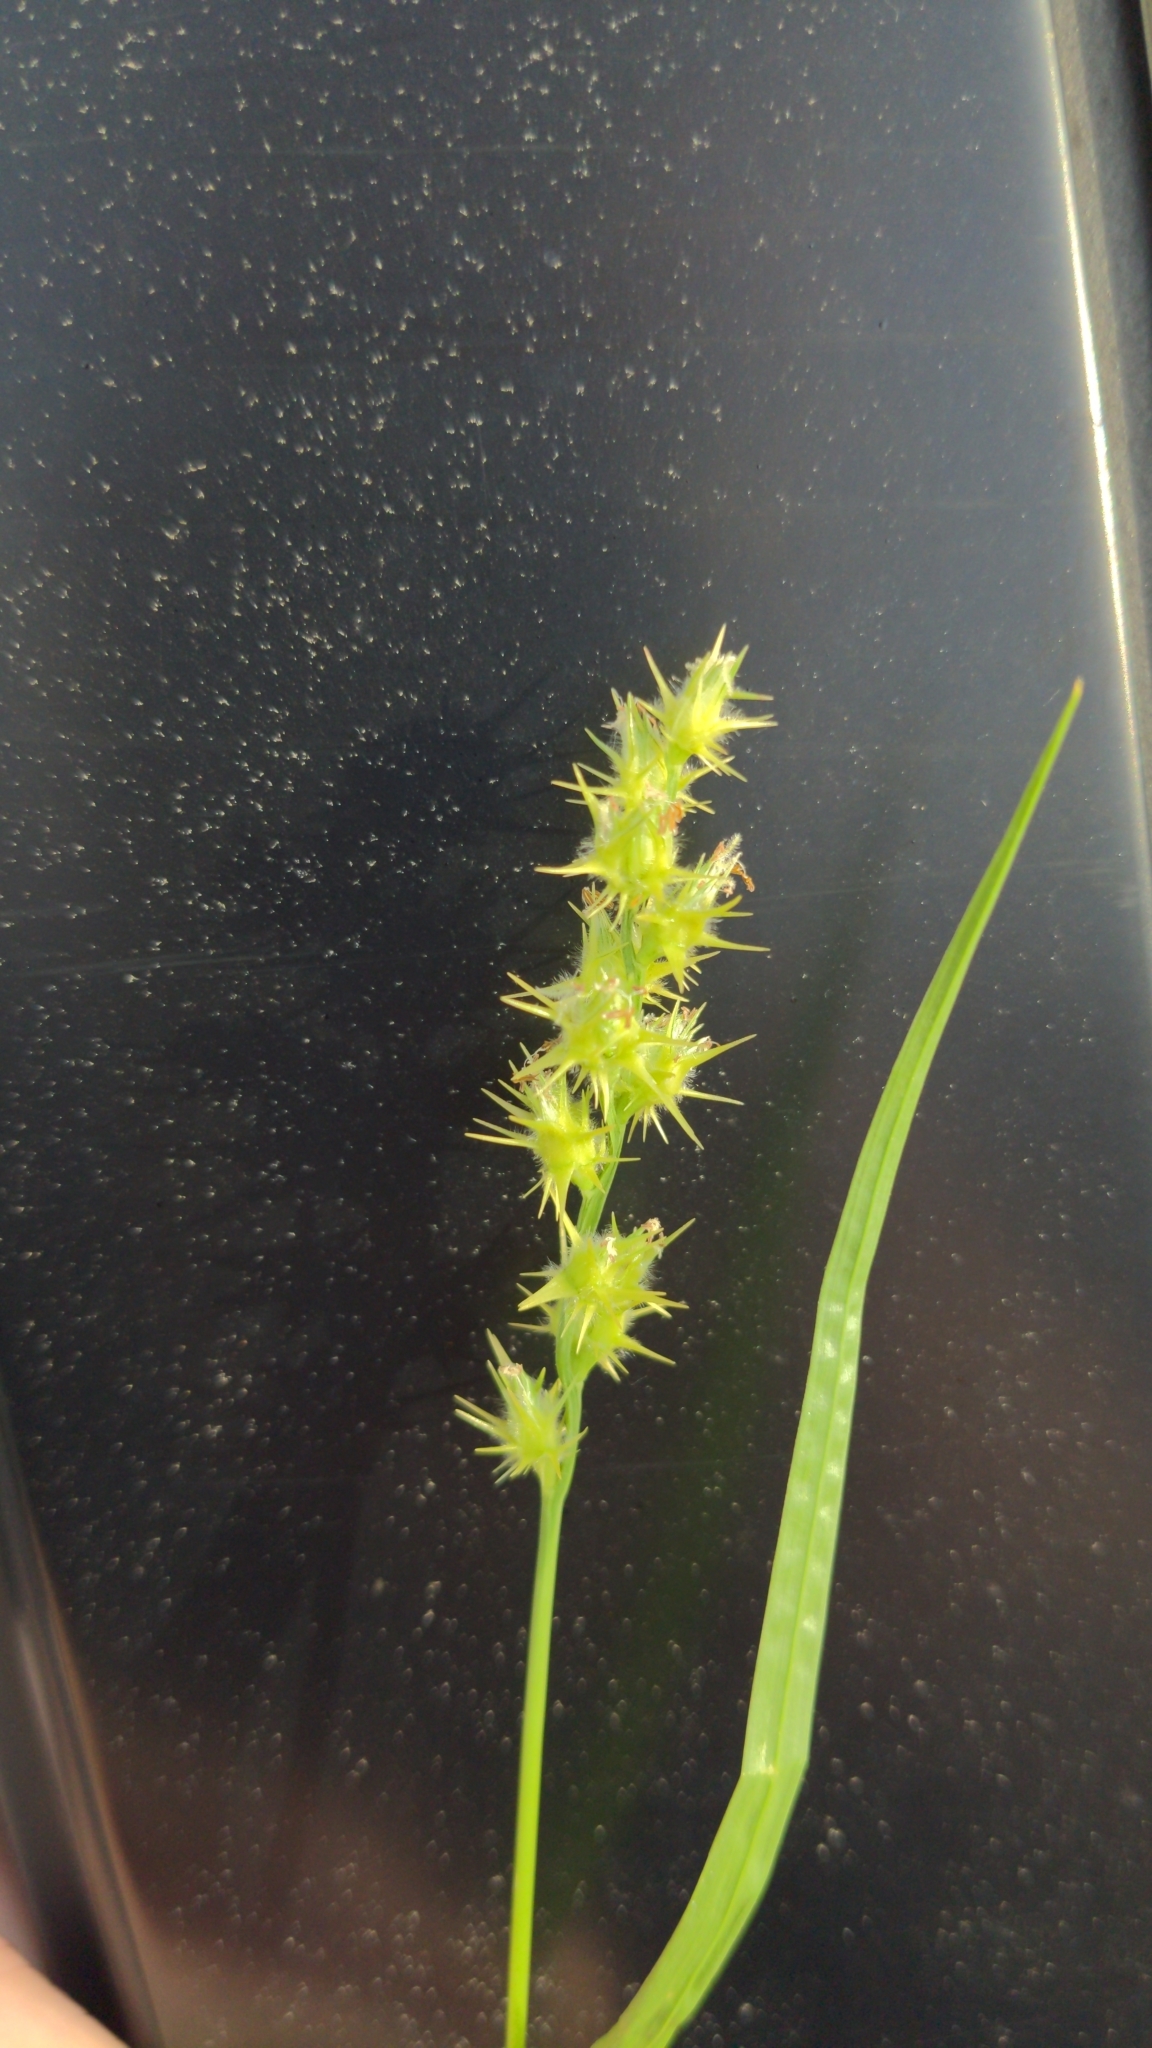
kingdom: Plantae
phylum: Tracheophyta
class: Liliopsida
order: Poales
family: Poaceae
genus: Cenchrus
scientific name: Cenchrus spinifex
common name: Coast sandbur
